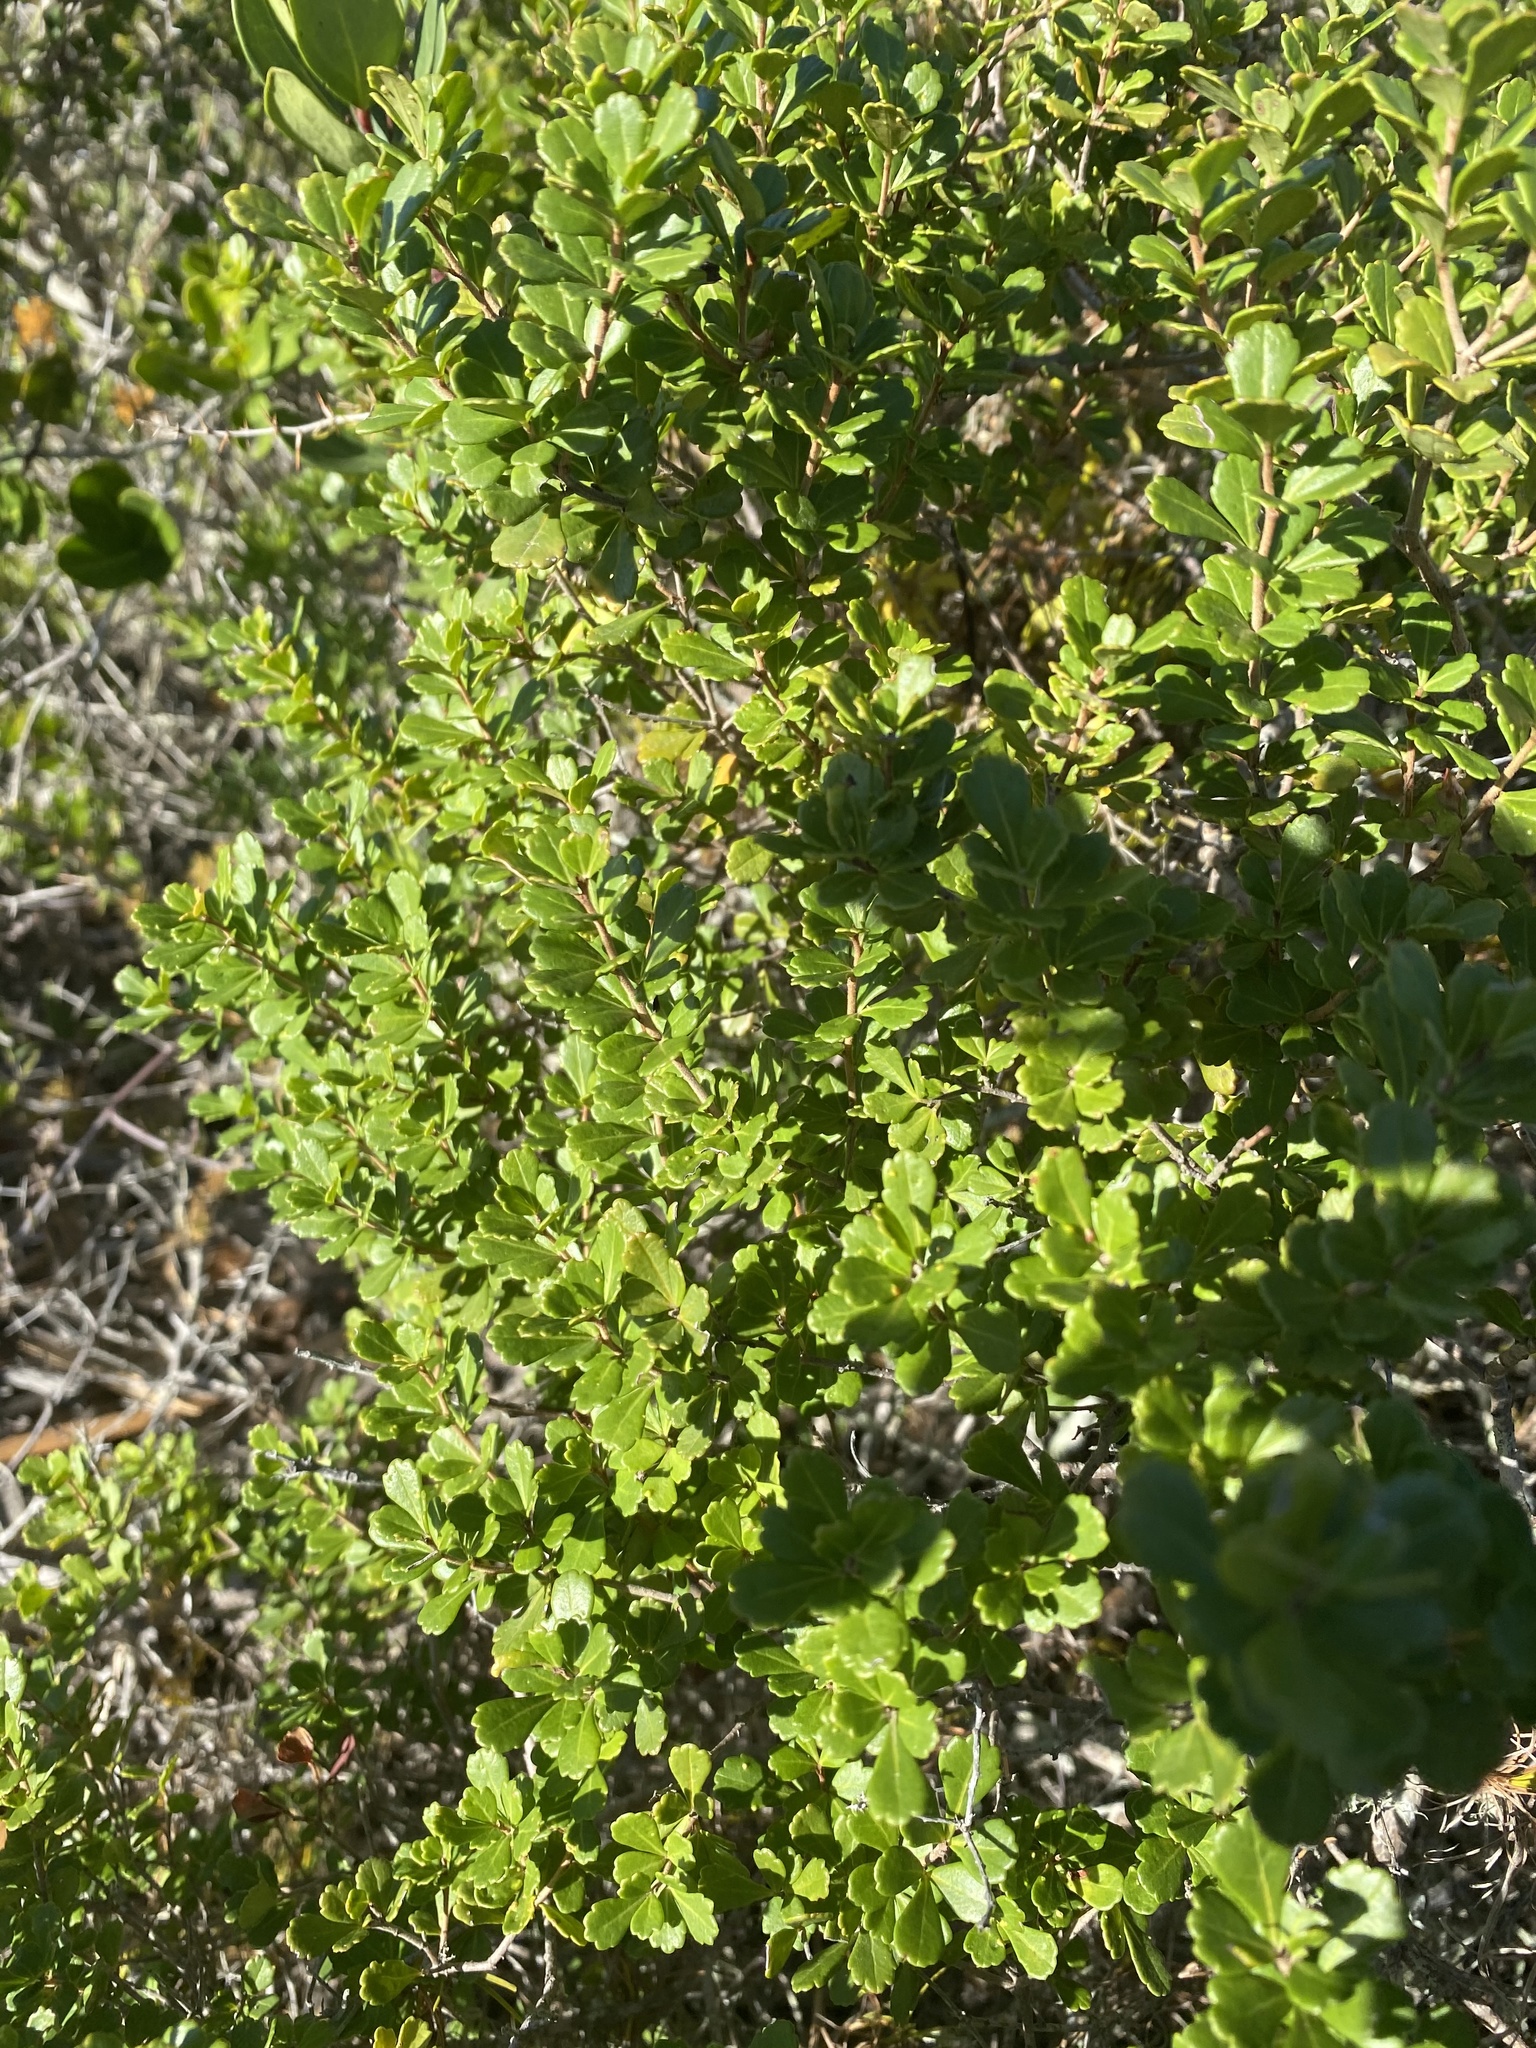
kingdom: Plantae
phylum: Tracheophyta
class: Magnoliopsida
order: Sapindales
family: Anacardiaceae
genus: Searsia
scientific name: Searsia crenata
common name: Crowberry
